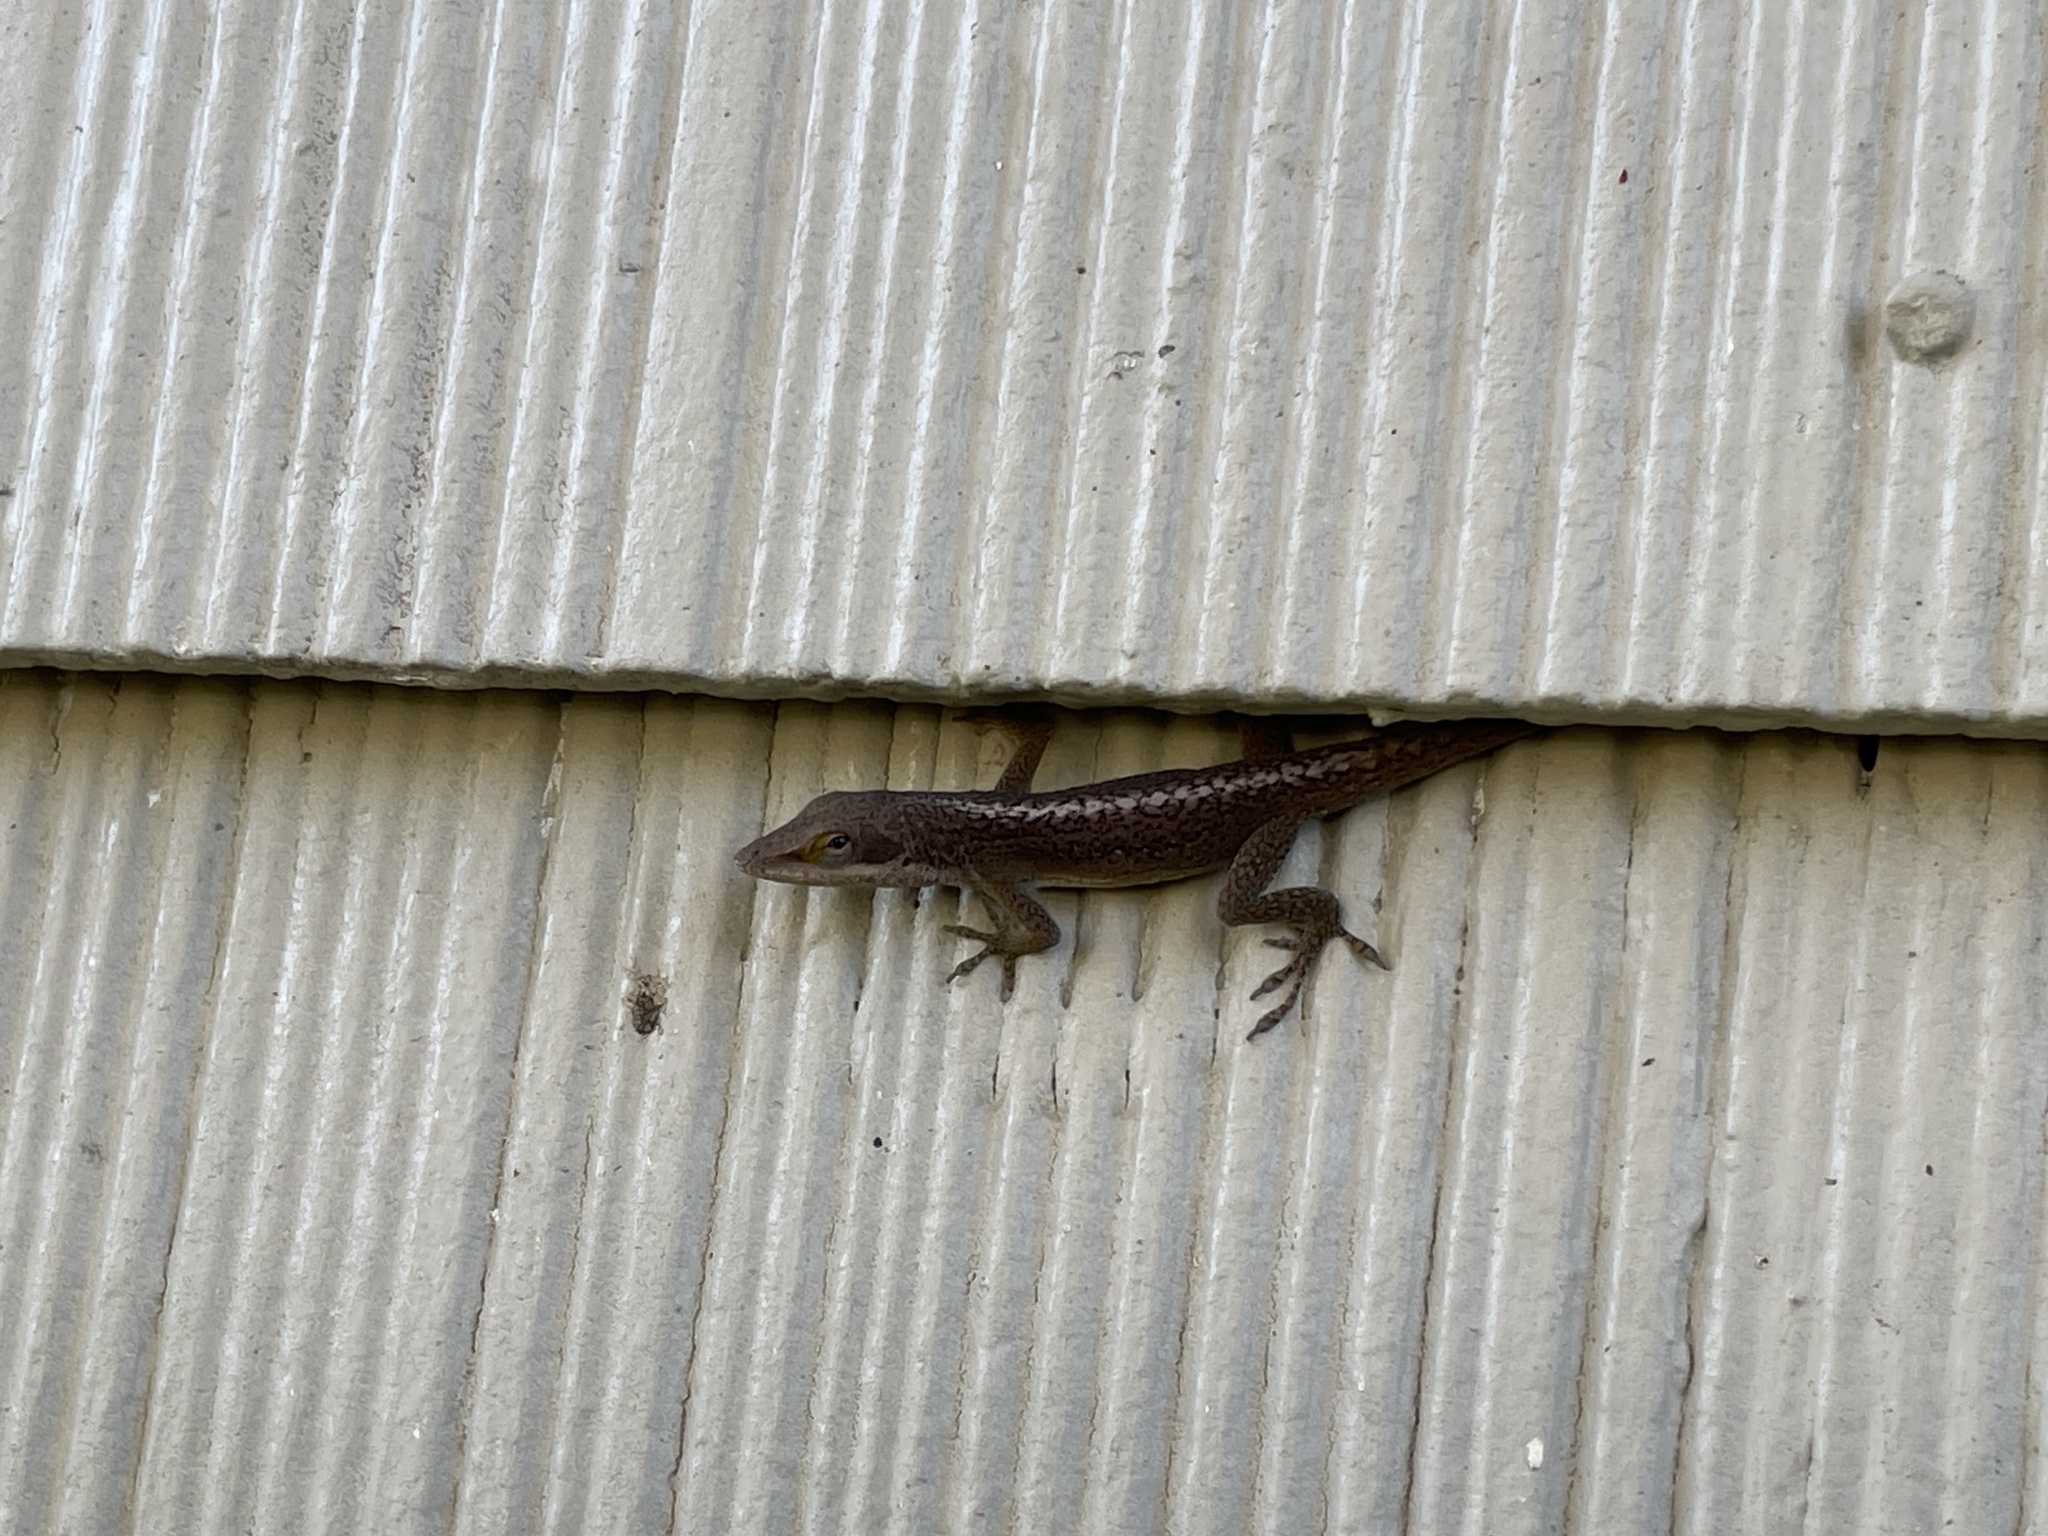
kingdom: Animalia
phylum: Chordata
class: Squamata
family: Dactyloidae
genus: Anolis
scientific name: Anolis carolinensis
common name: Green anole
